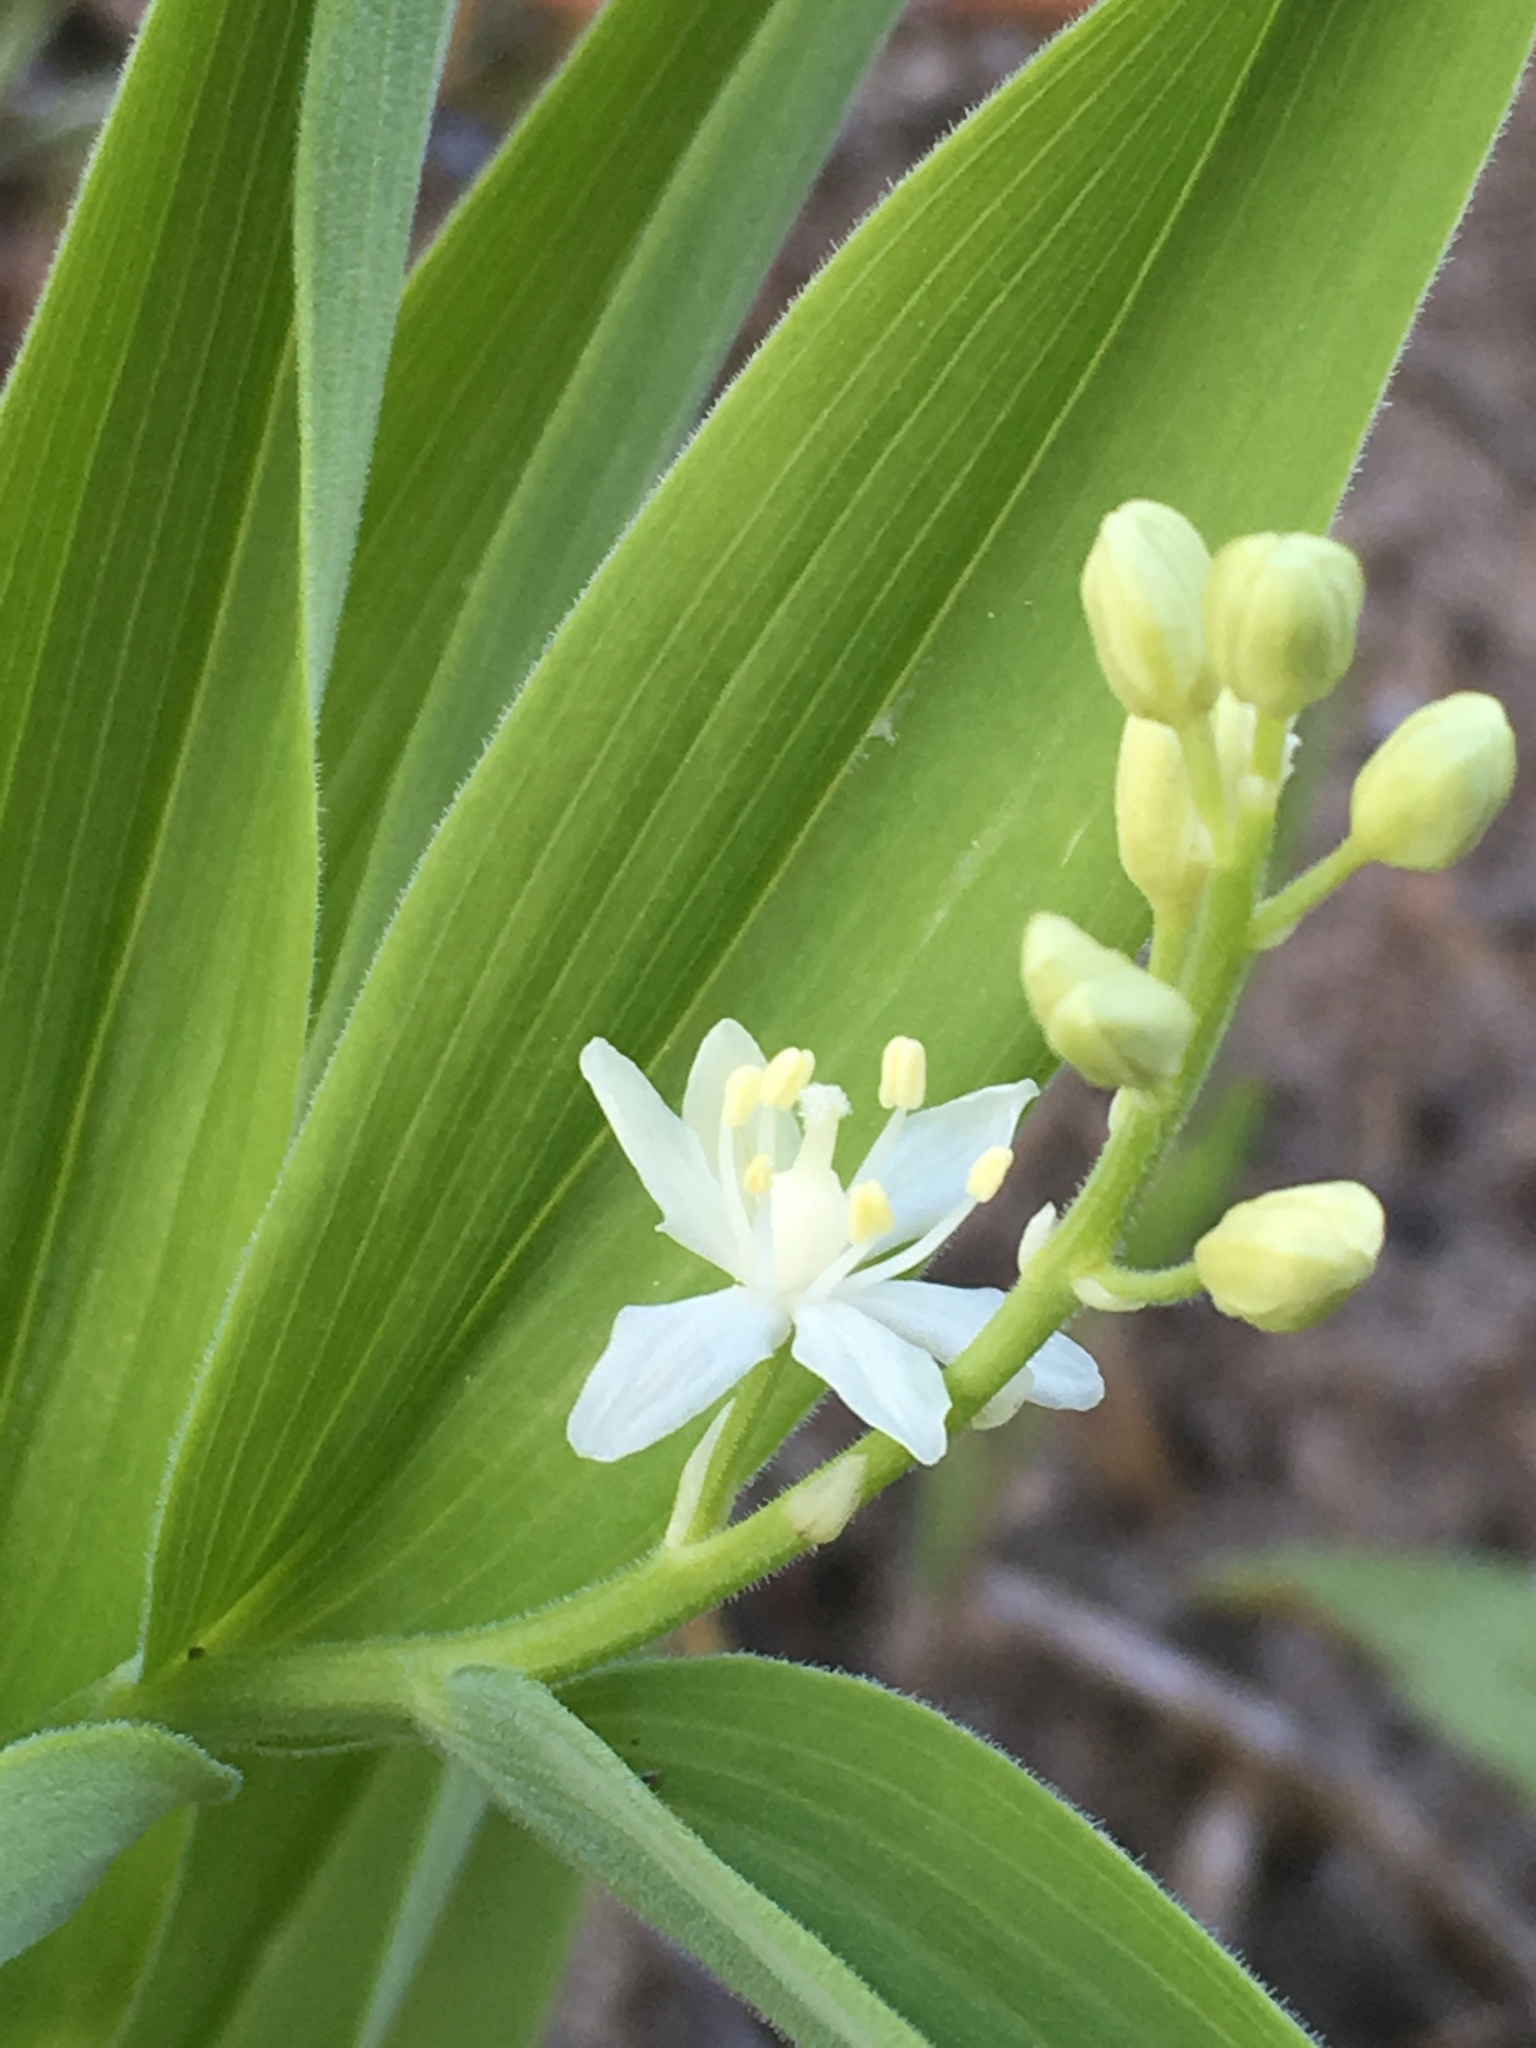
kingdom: Plantae
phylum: Tracheophyta
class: Liliopsida
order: Asparagales
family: Asparagaceae
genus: Maianthemum
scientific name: Maianthemum stellatum
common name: Little false solomon's seal
